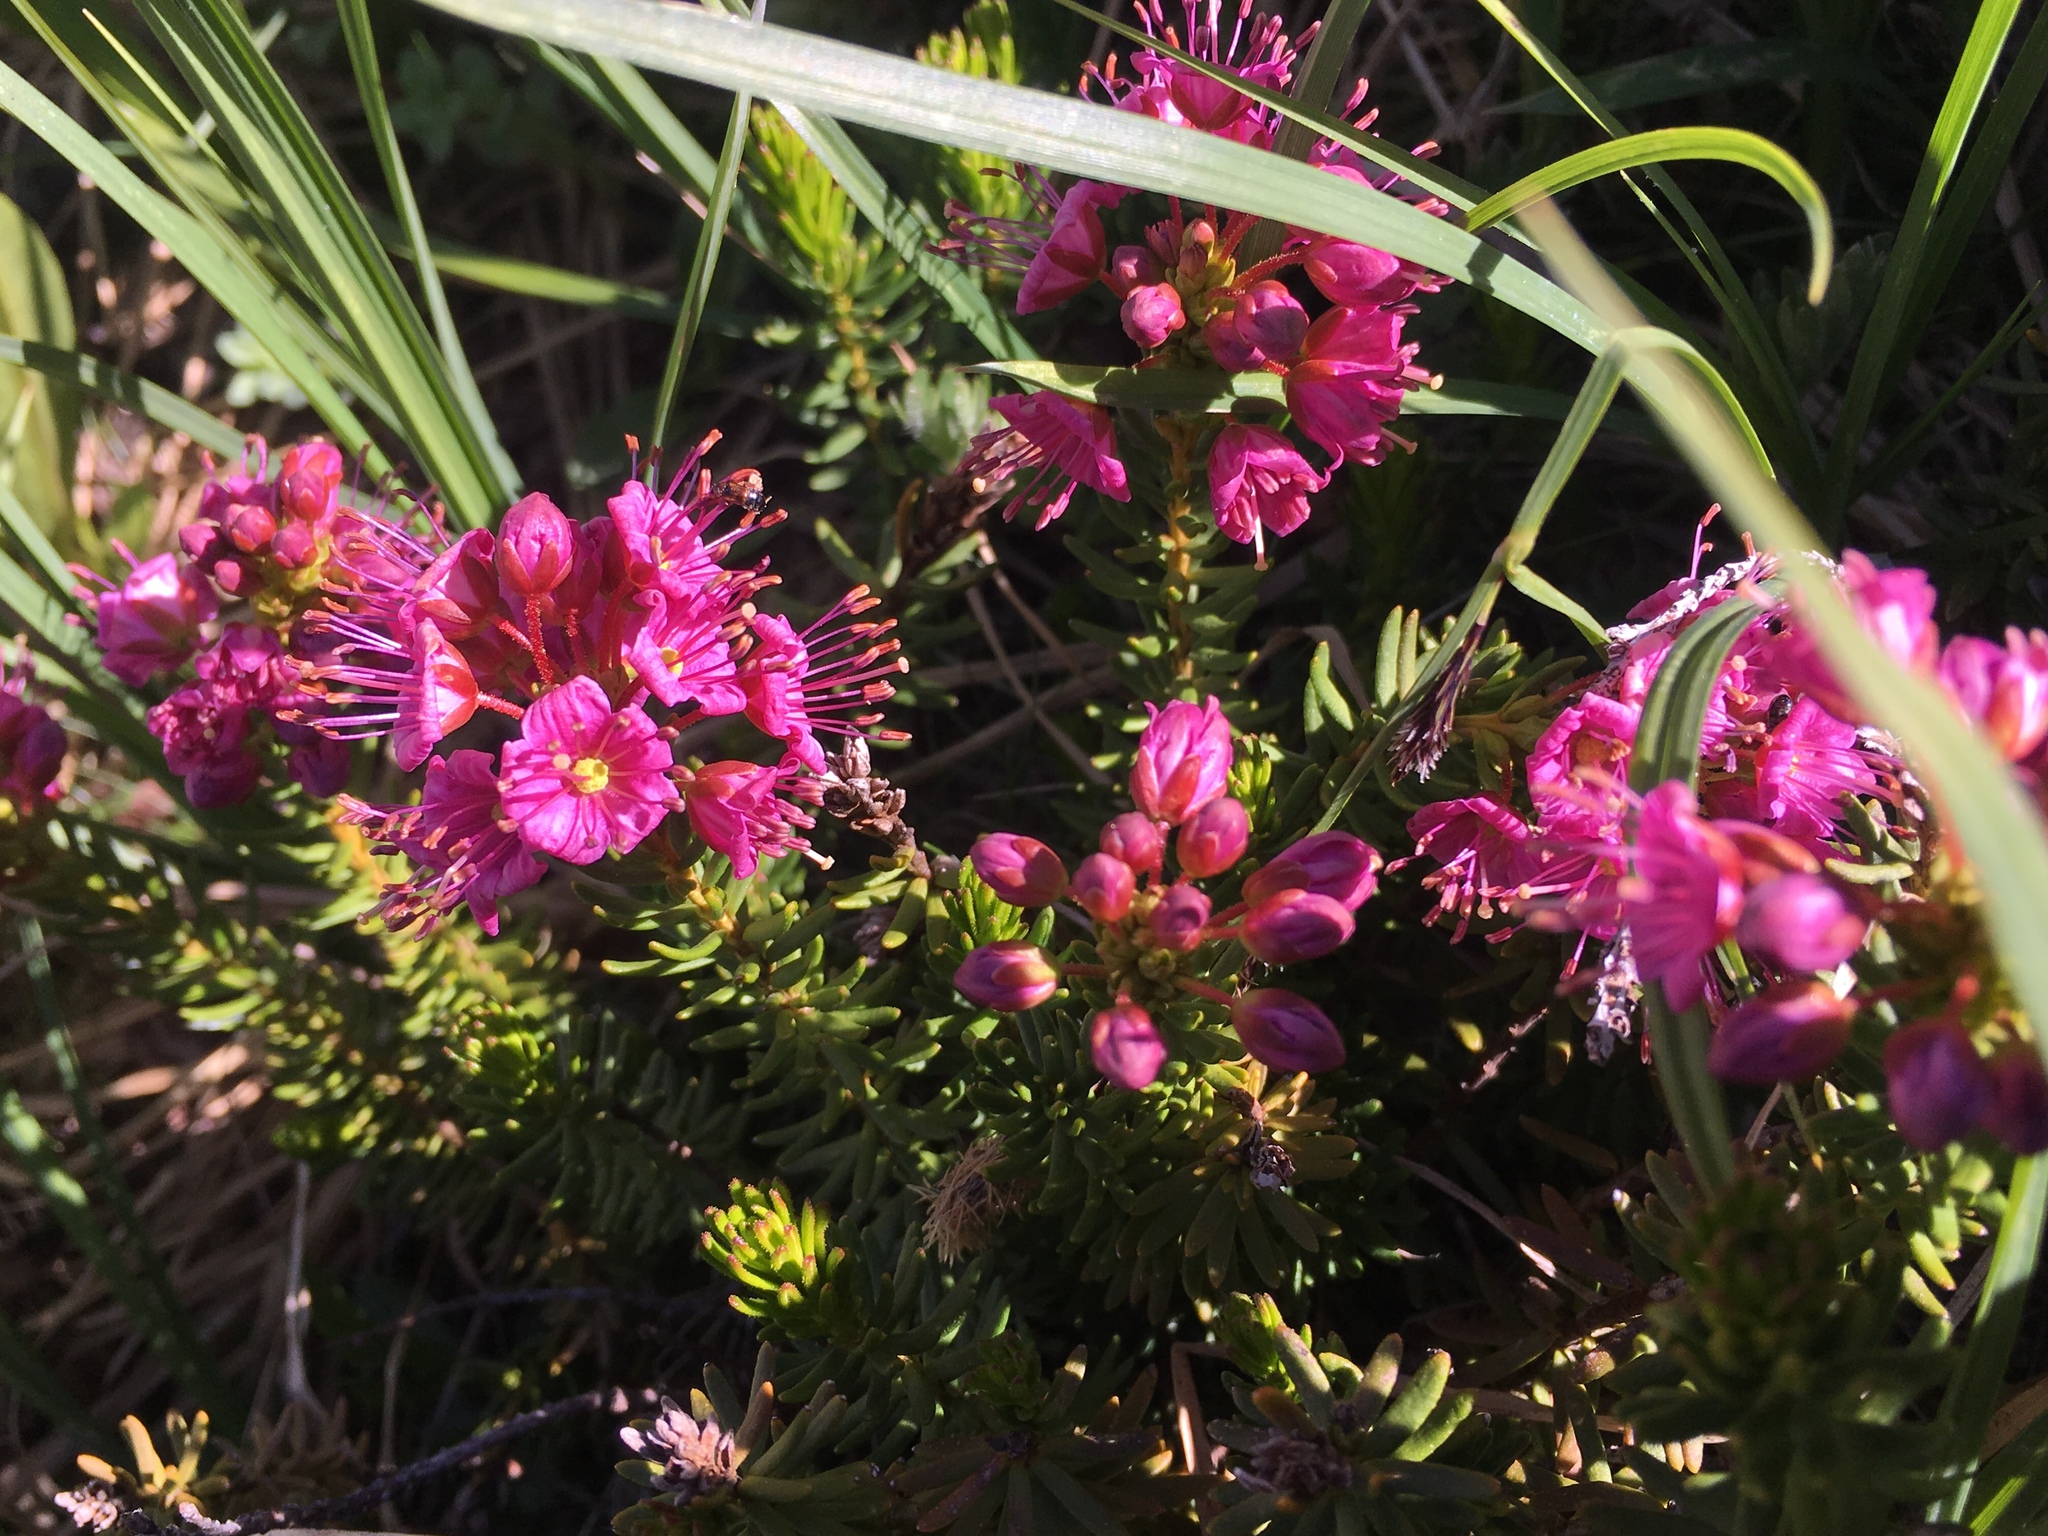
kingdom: Plantae
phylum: Tracheophyta
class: Magnoliopsida
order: Ericales
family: Ericaceae
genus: Phyllodoce
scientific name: Phyllodoce breweri
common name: Brewer's mountain-heather
